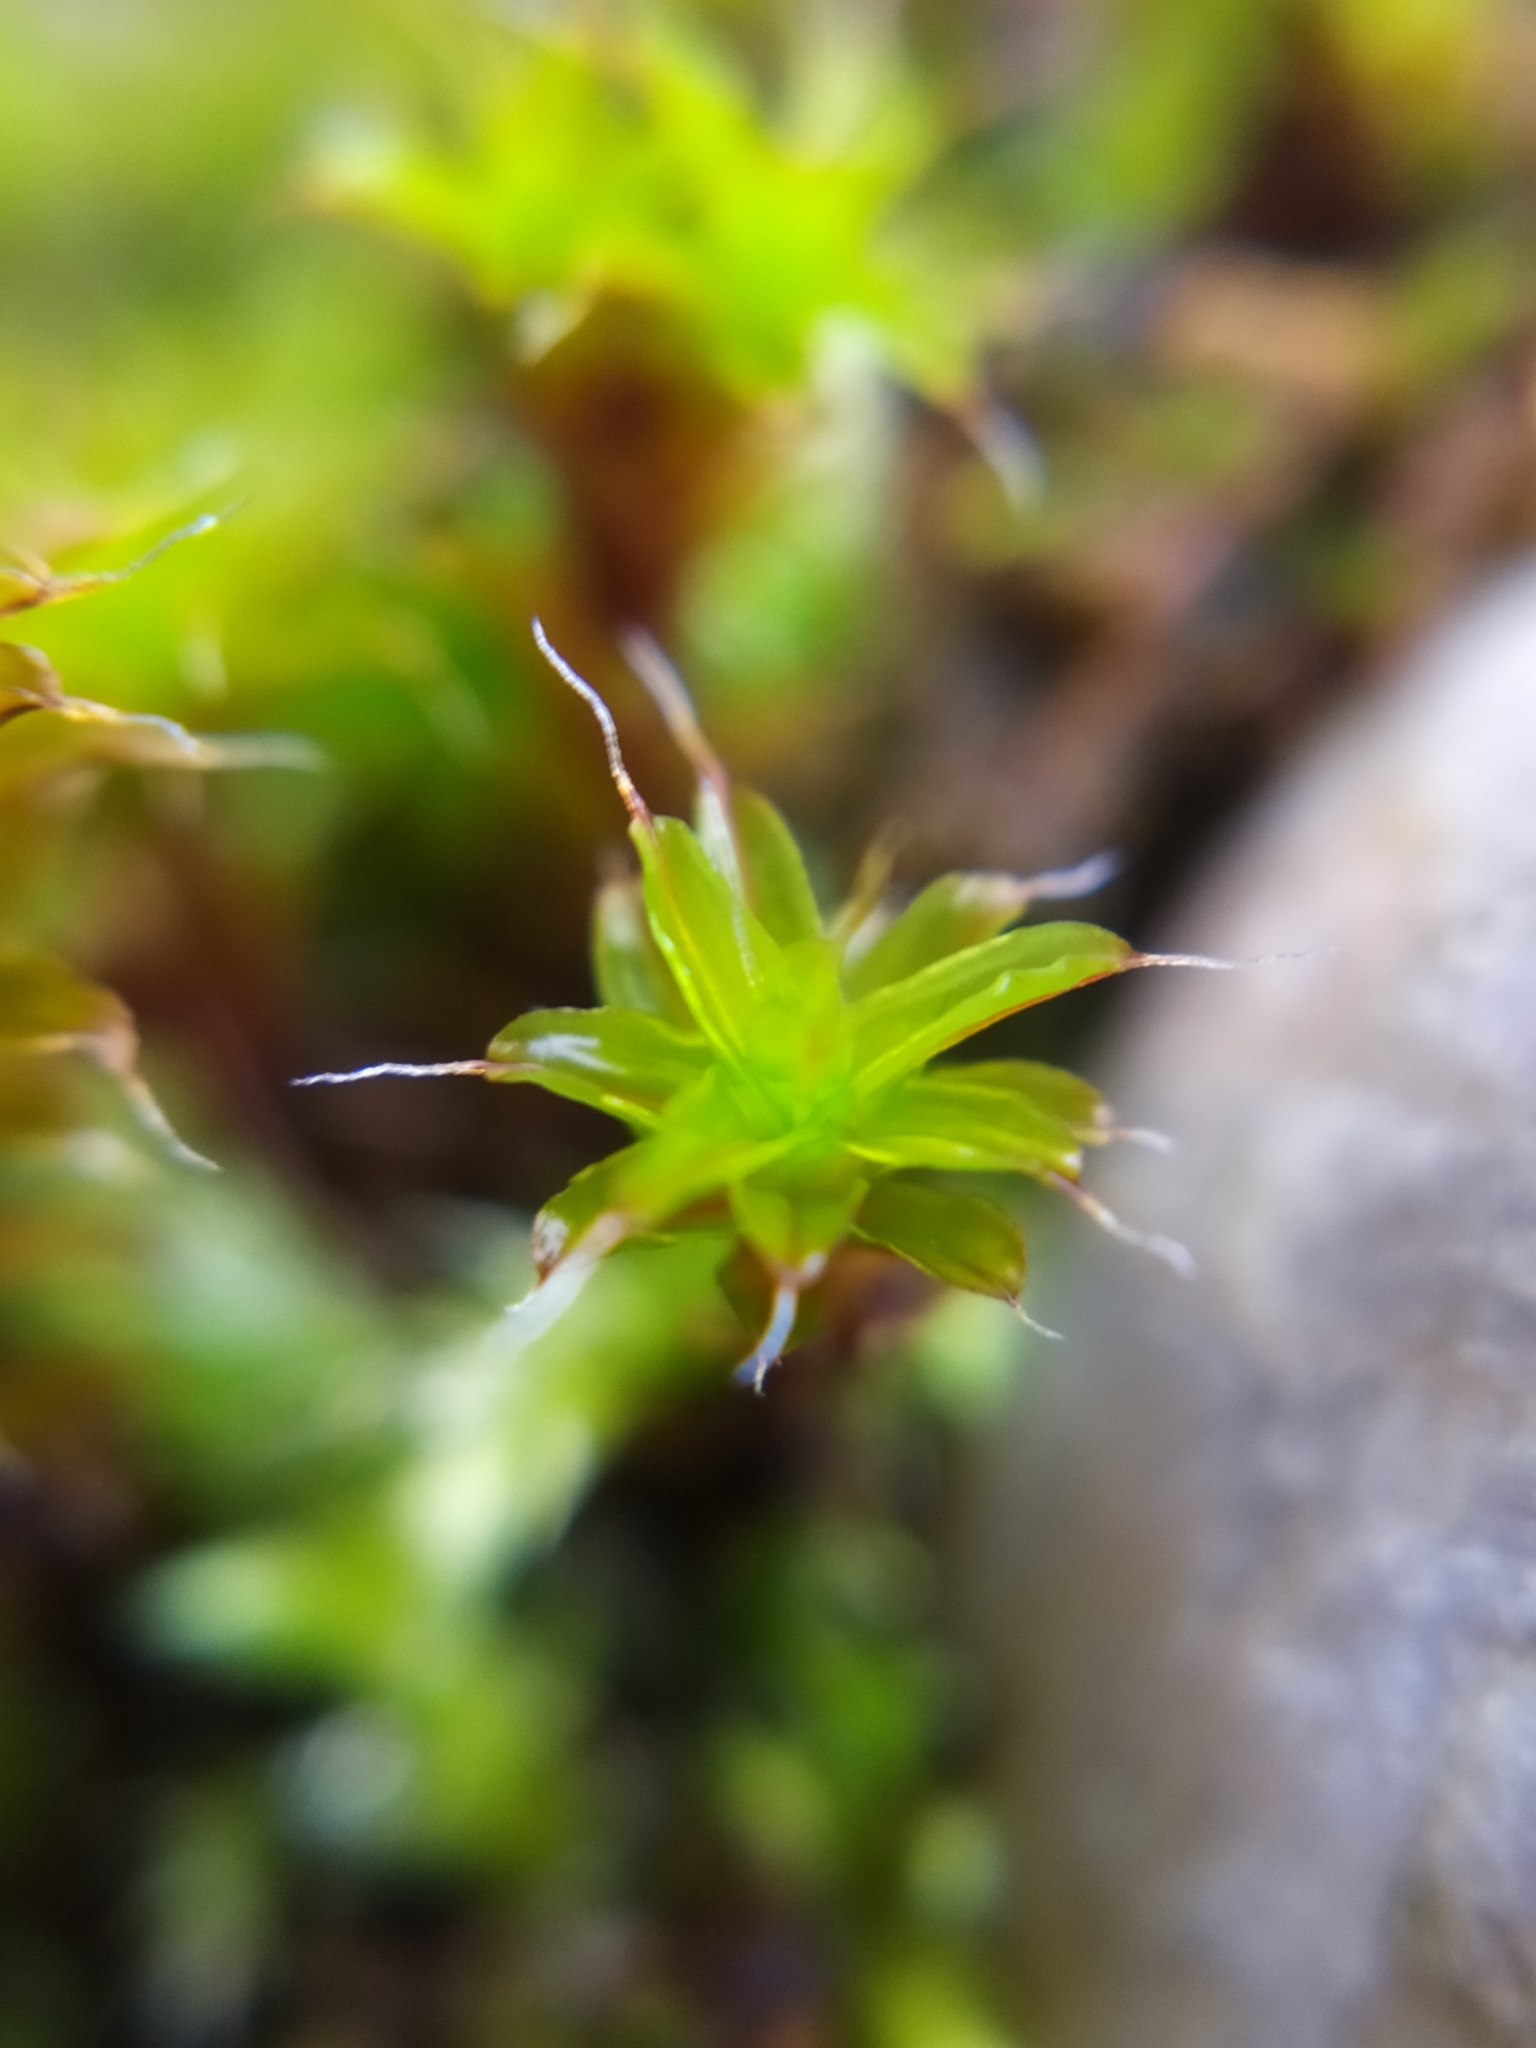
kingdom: Plantae
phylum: Bryophyta
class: Bryopsida
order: Pottiales
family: Pottiaceae
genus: Syntrichia
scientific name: Syntrichia ruralis
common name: Sidewalk screw moss
